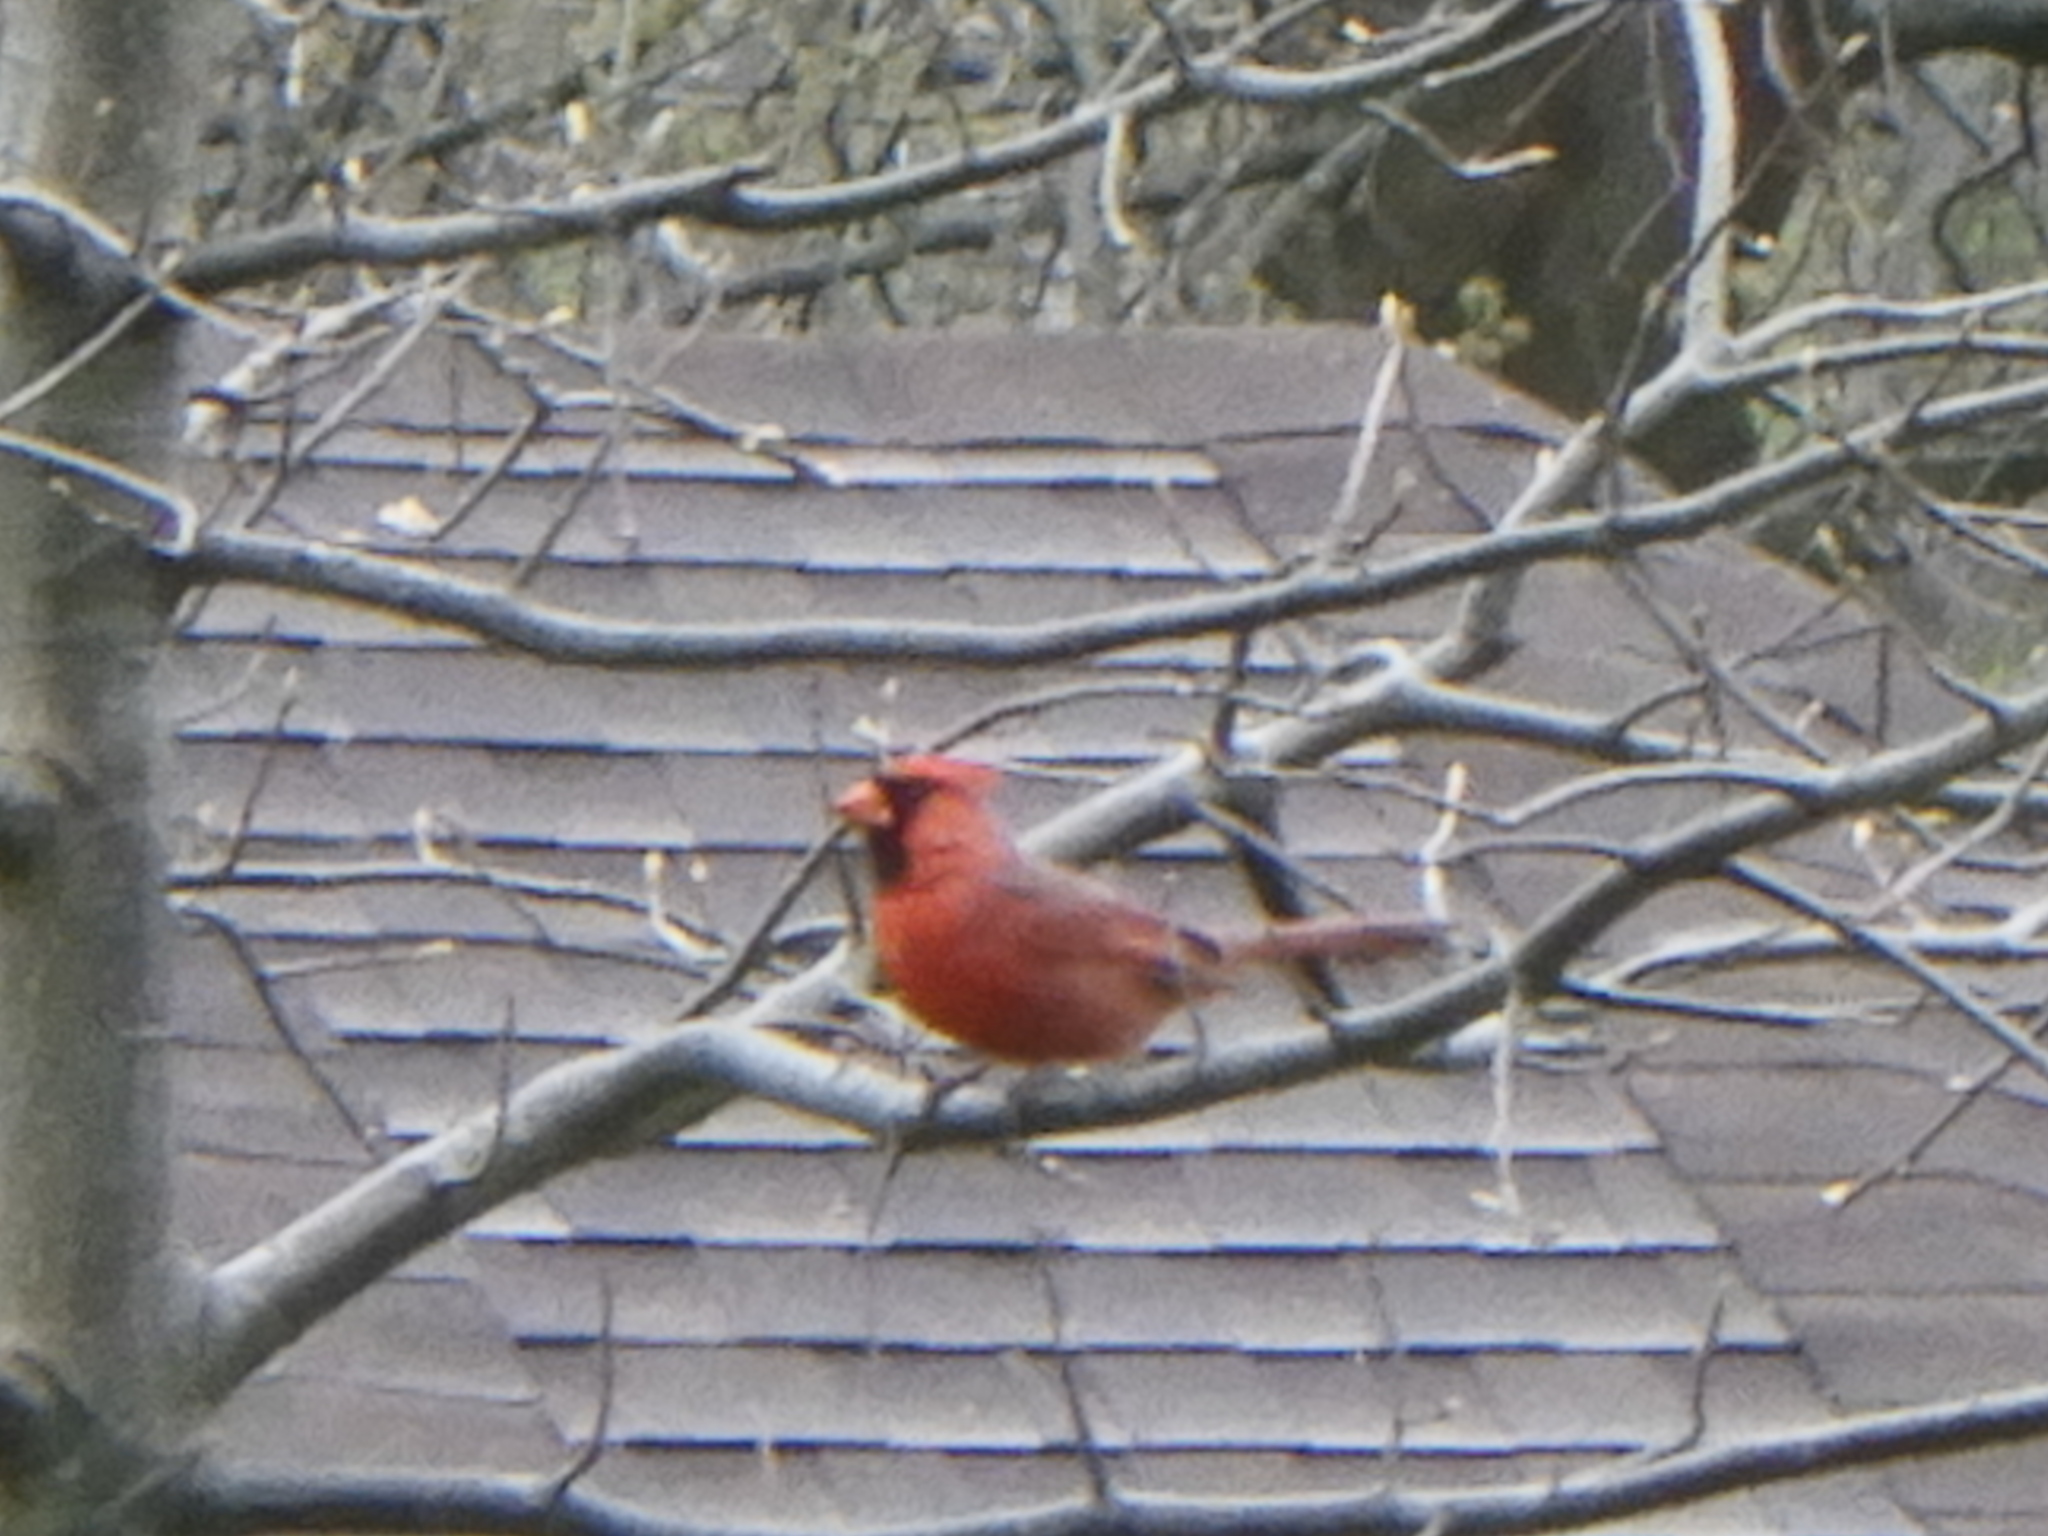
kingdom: Animalia
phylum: Chordata
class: Aves
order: Passeriformes
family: Cardinalidae
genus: Cardinalis
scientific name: Cardinalis cardinalis
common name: Northern cardinal
